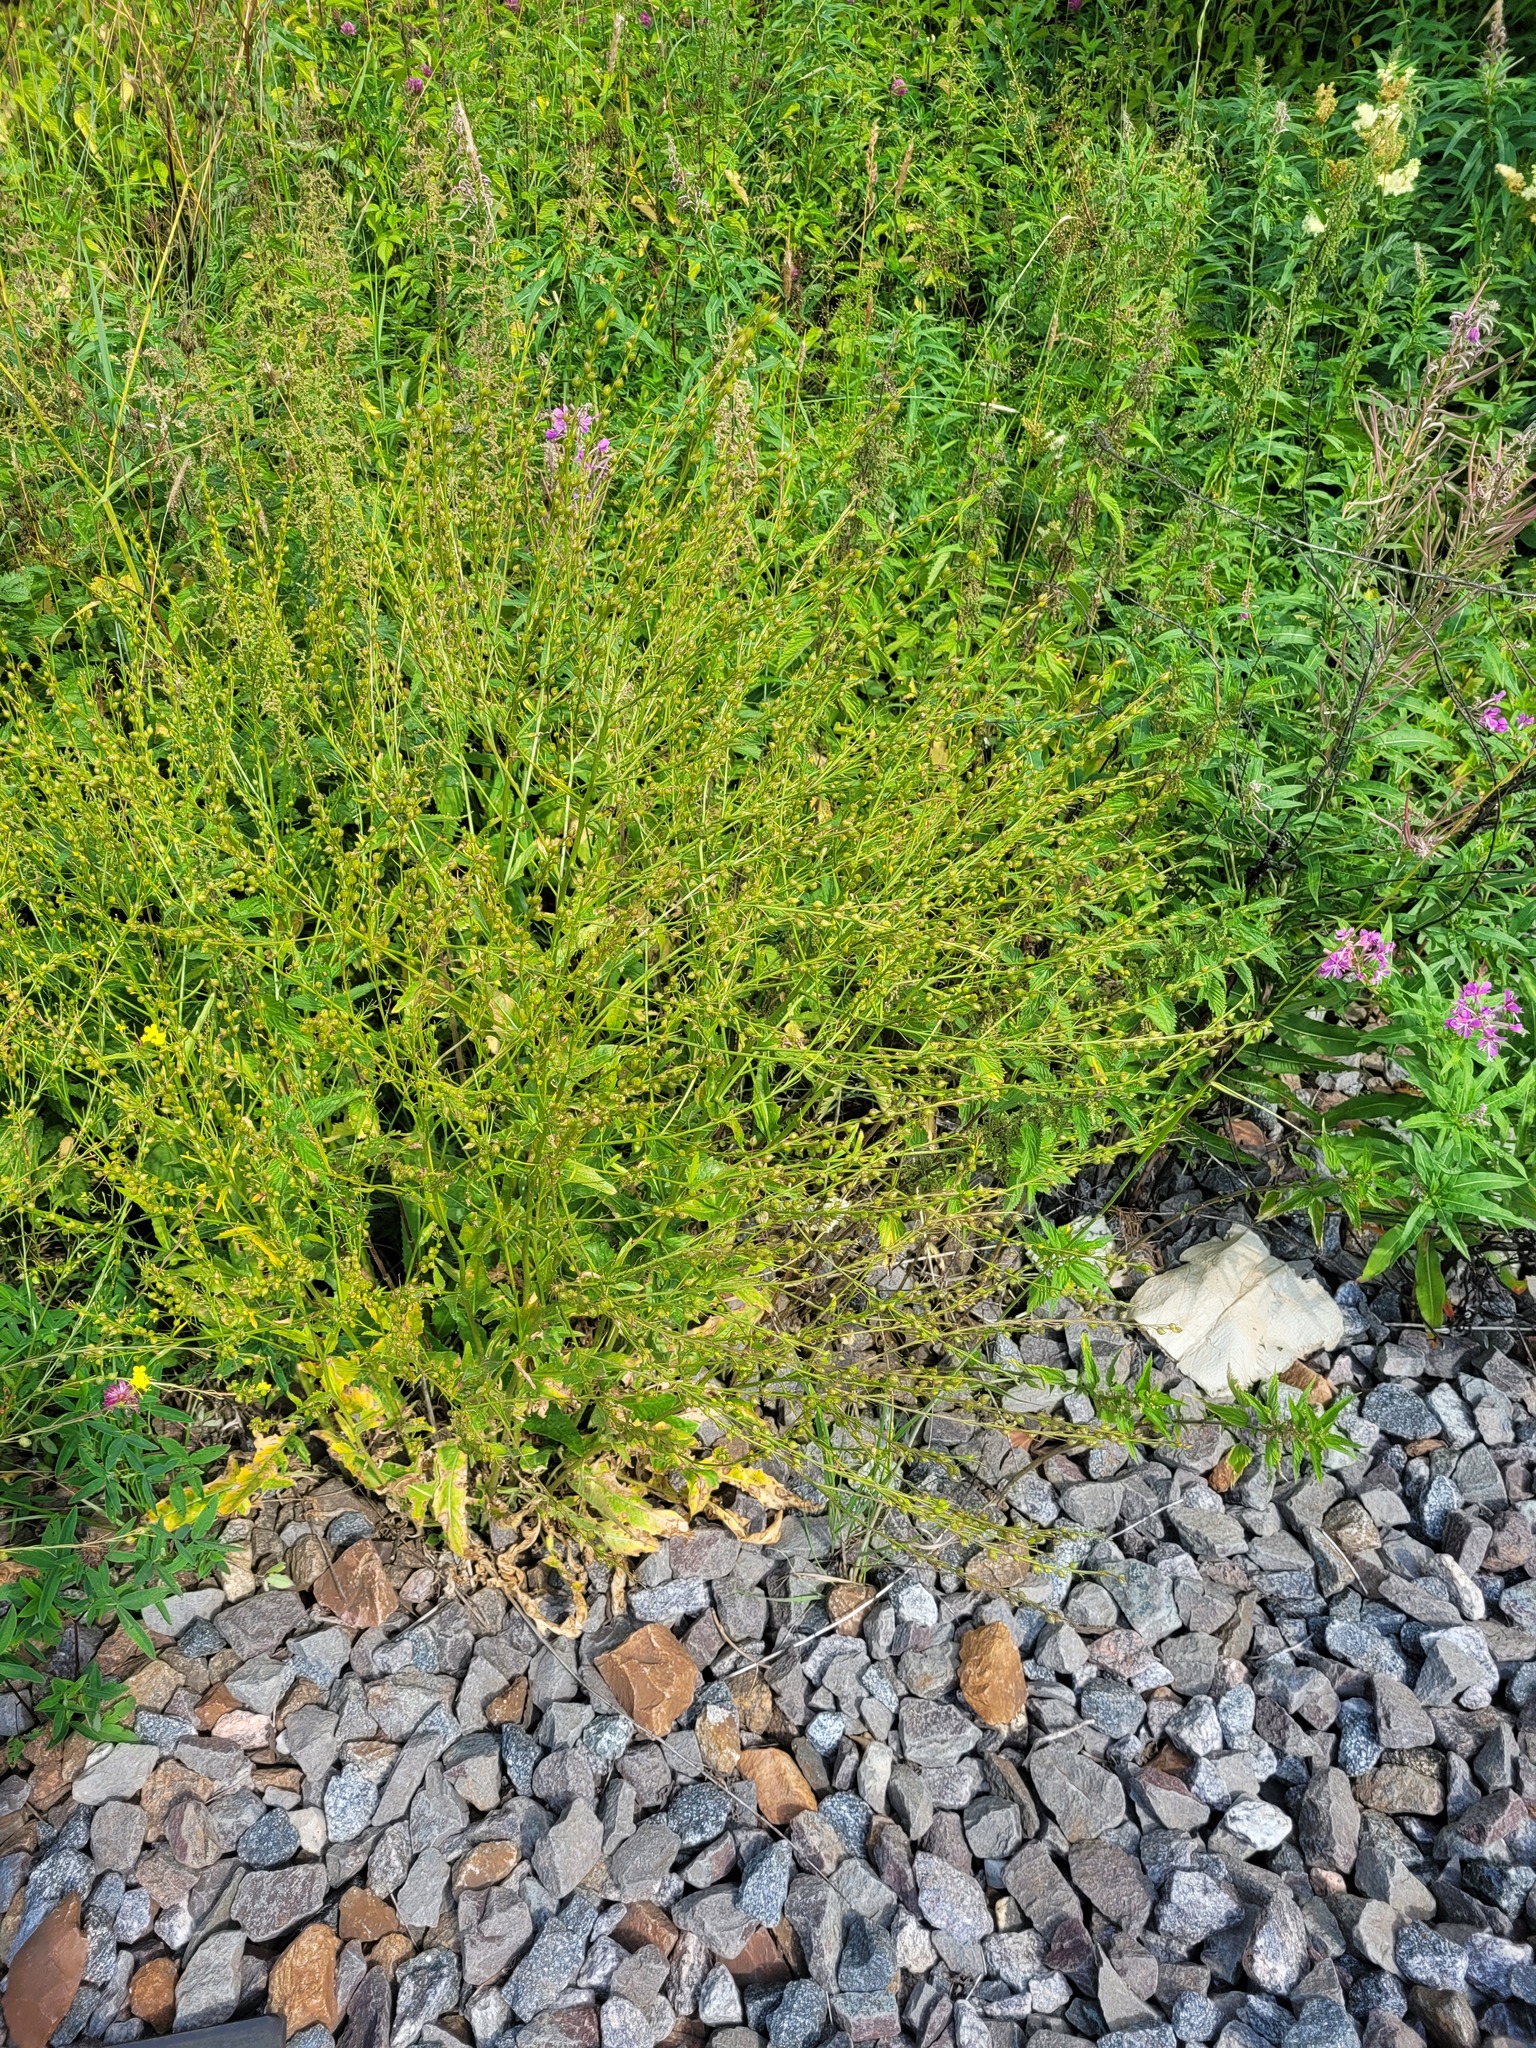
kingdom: Plantae
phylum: Tracheophyta
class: Magnoliopsida
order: Brassicales
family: Brassicaceae
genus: Bunias
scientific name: Bunias orientalis
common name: Warty-cabbage
